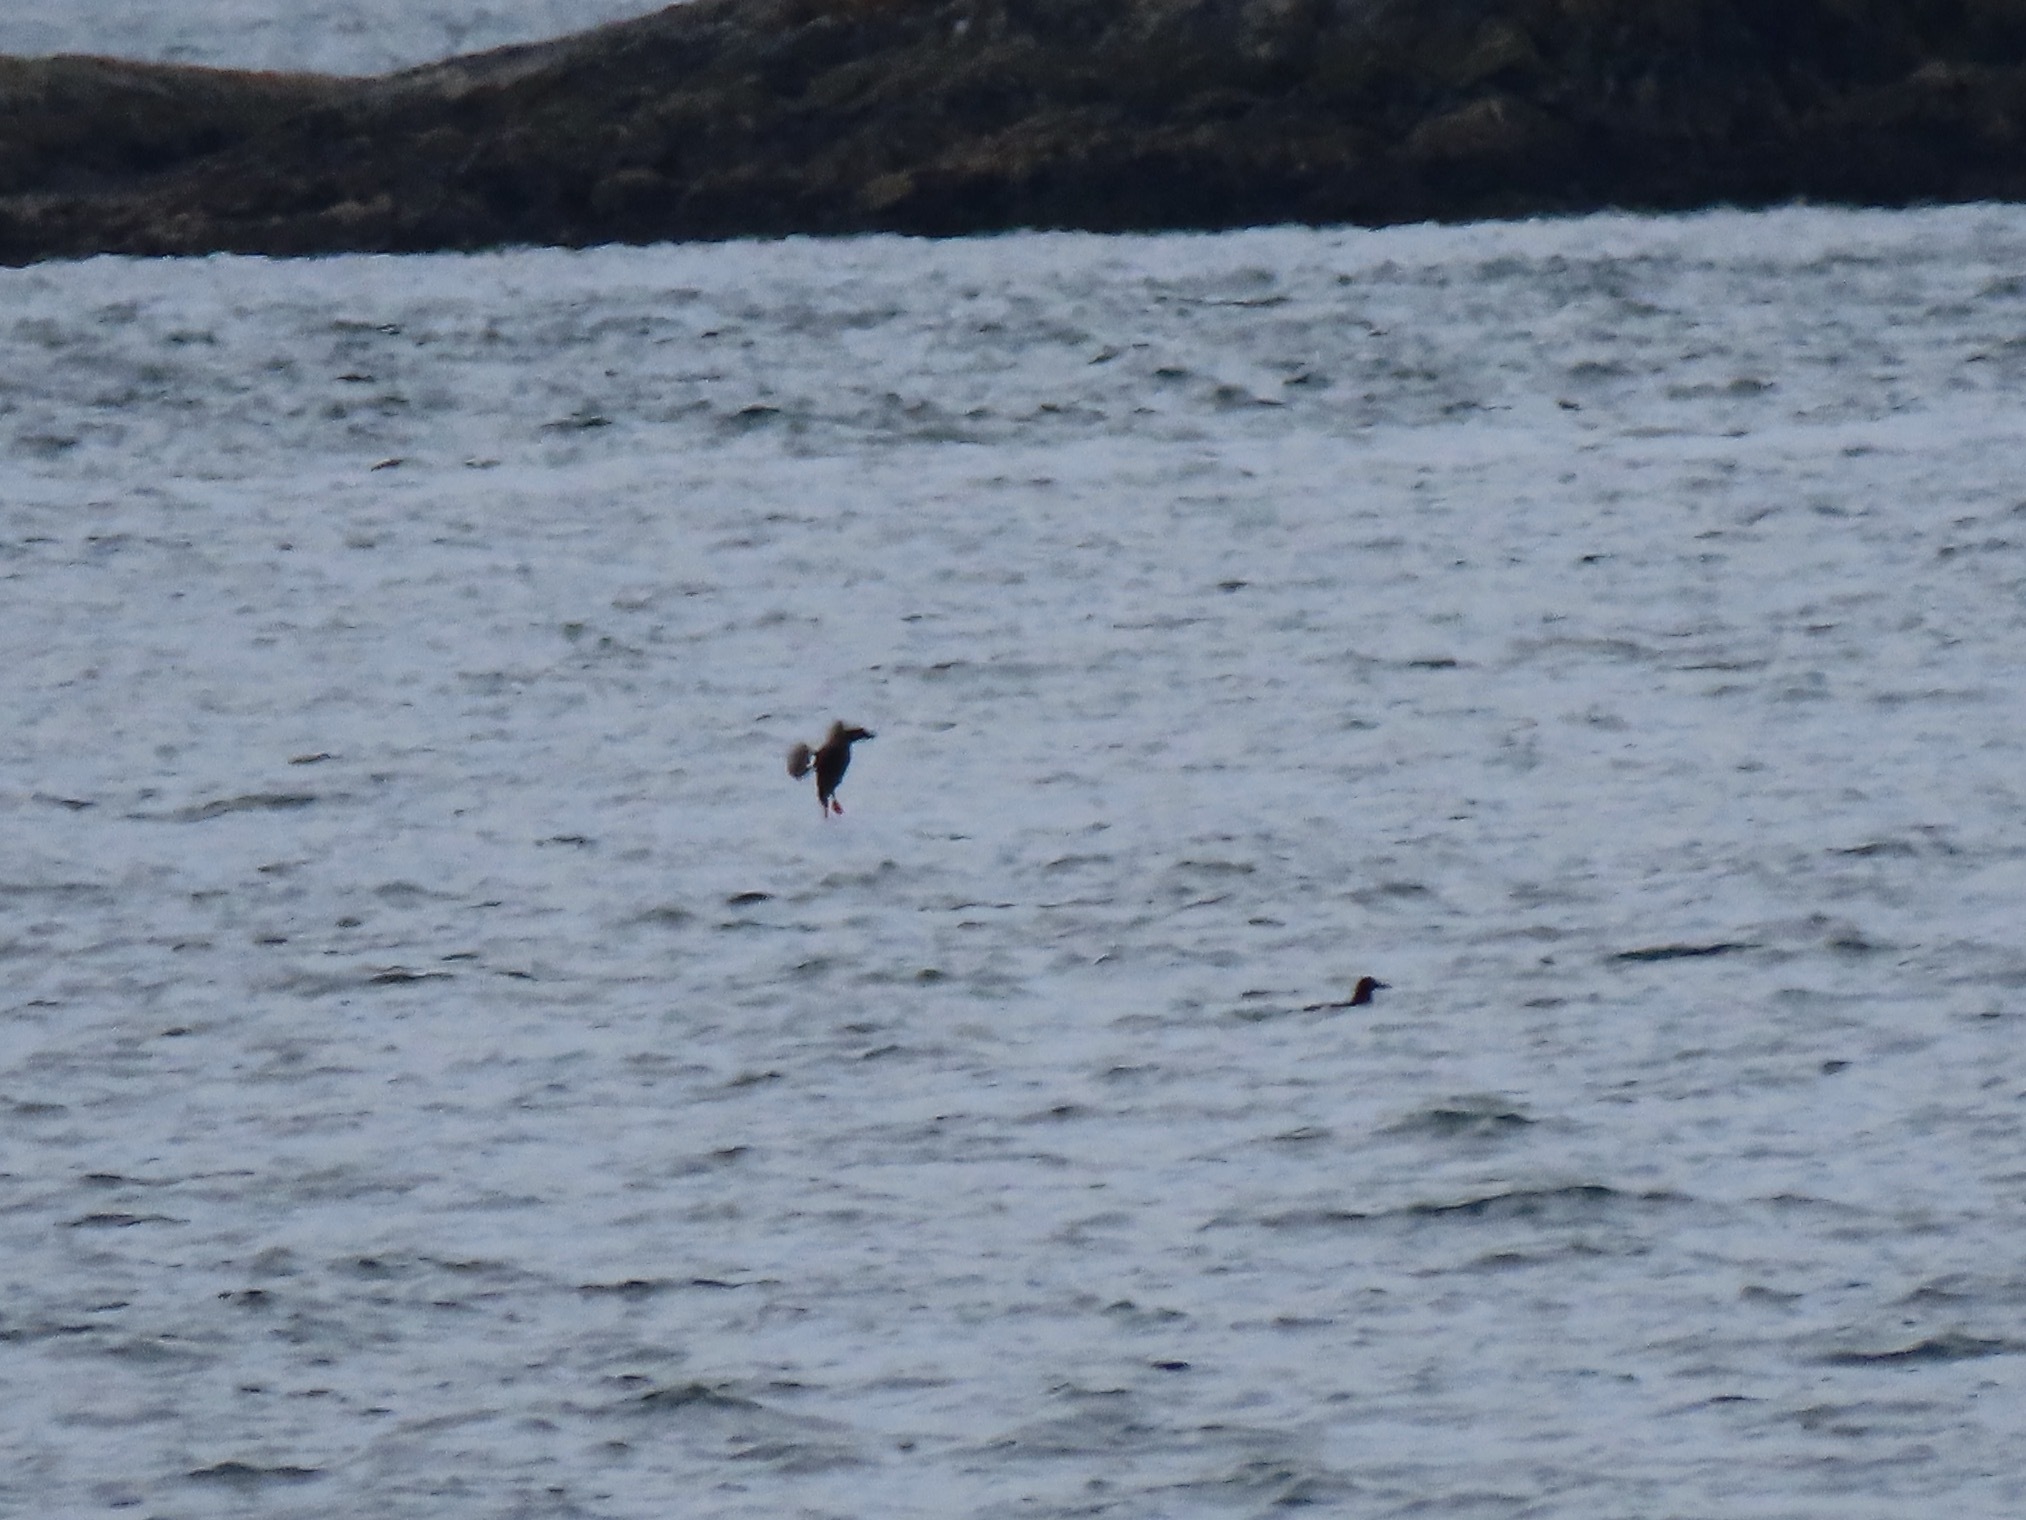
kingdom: Animalia
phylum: Chordata
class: Aves
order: Charadriiformes
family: Alcidae
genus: Cepphus
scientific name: Cepphus columba
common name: Pigeon guillemot
